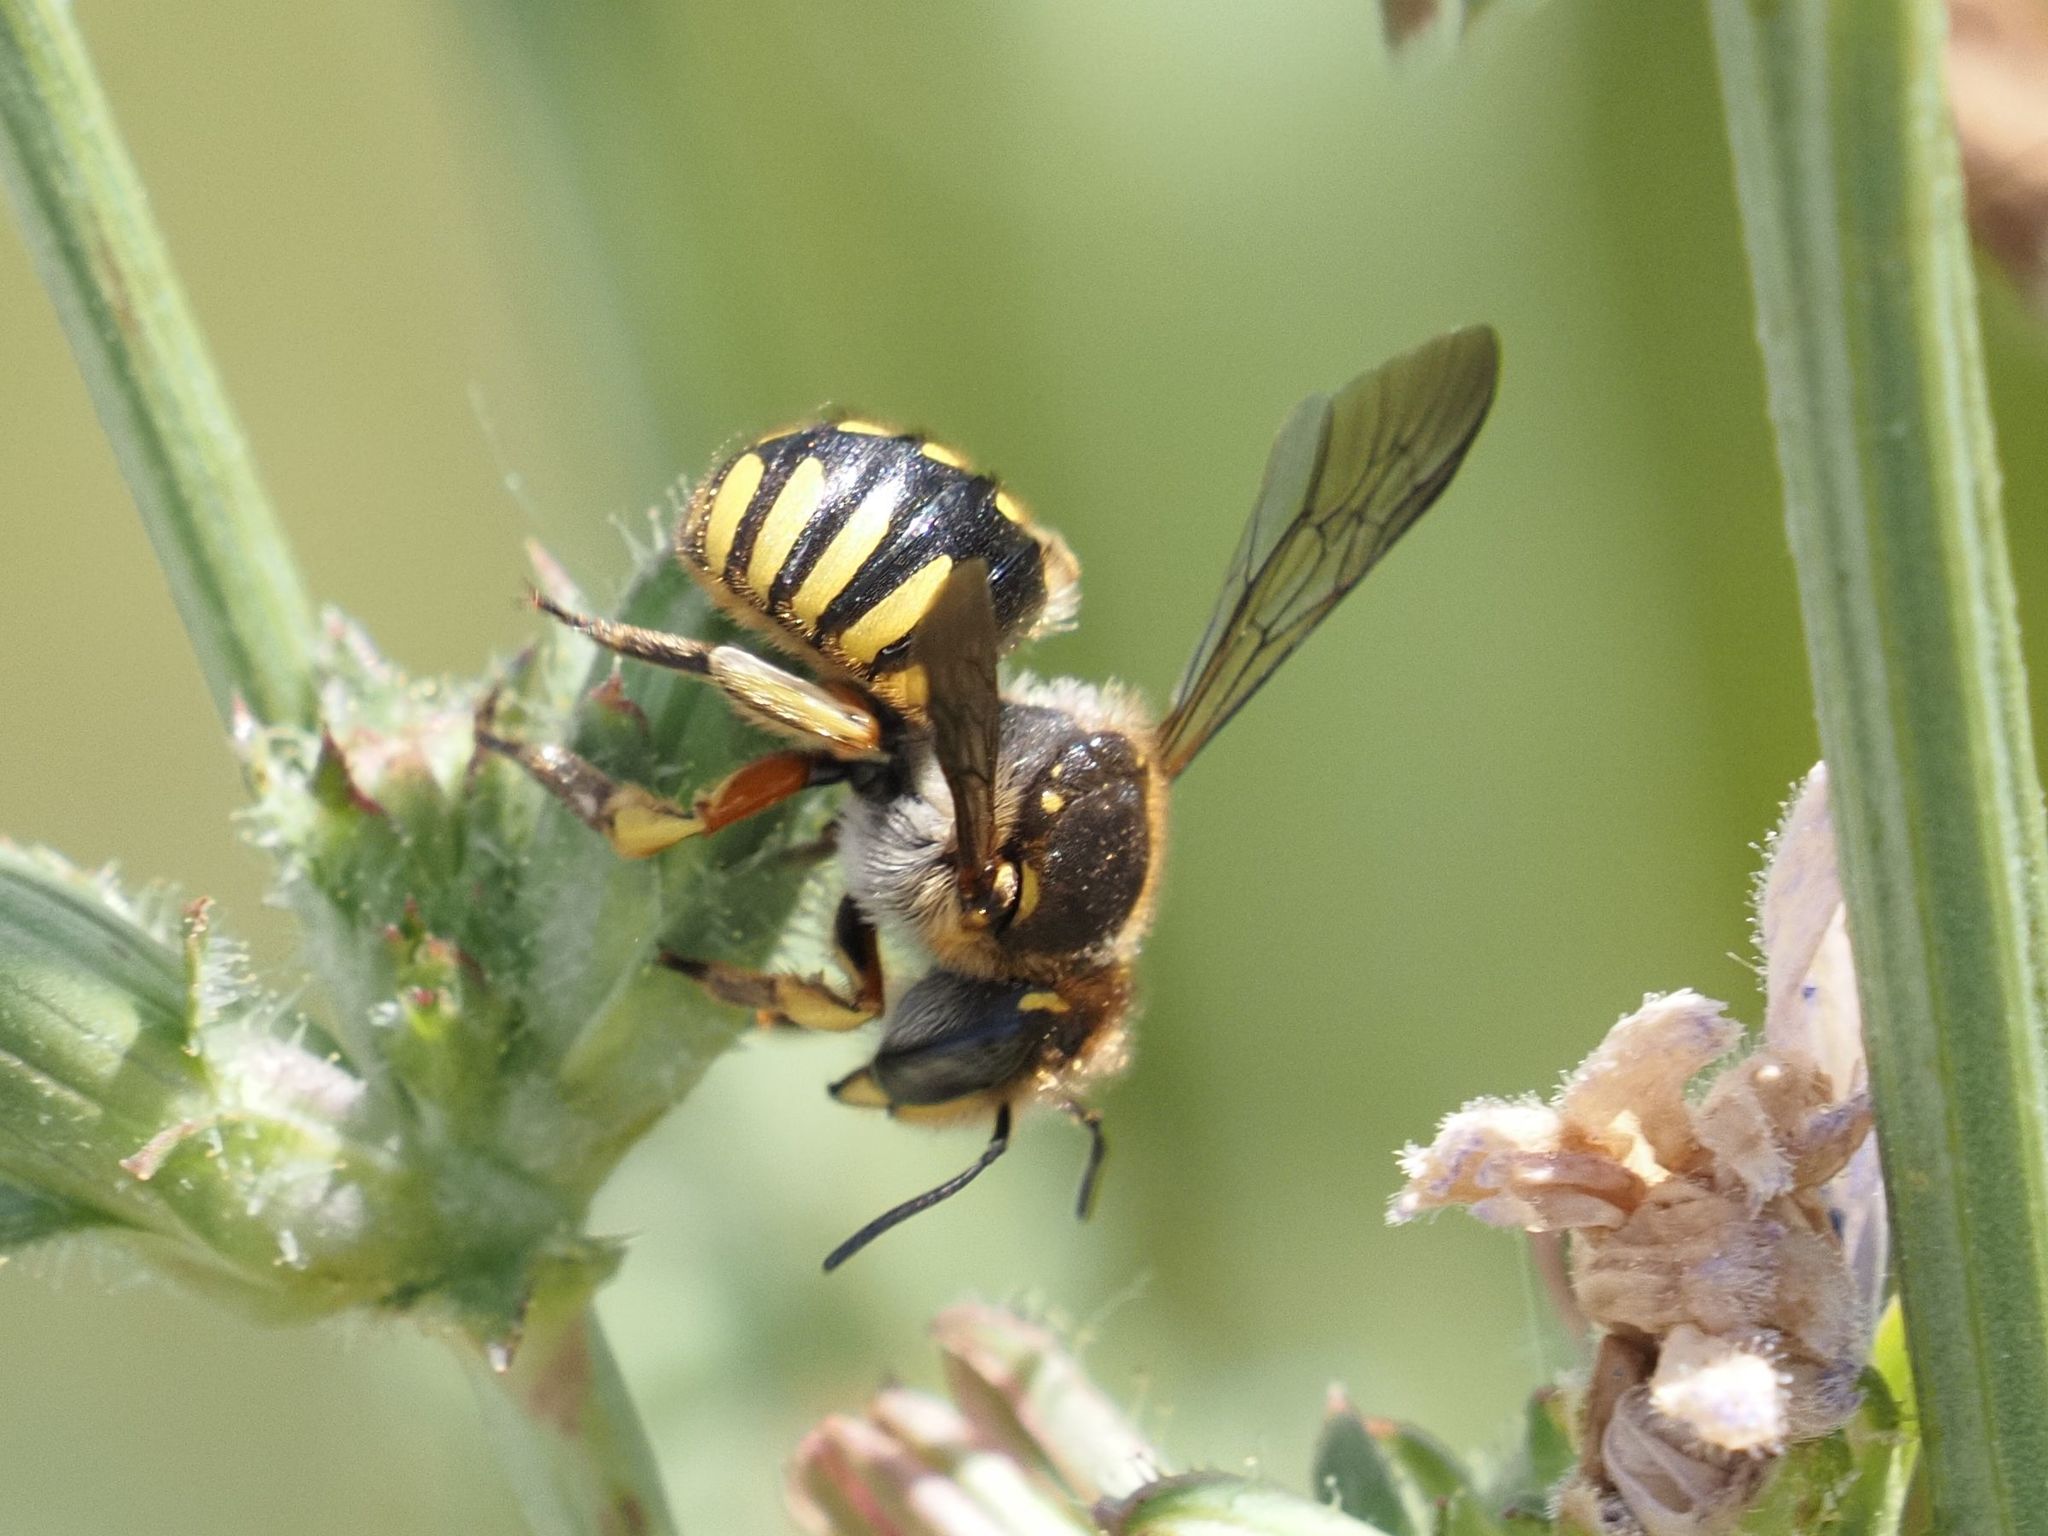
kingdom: Animalia
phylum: Arthropoda
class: Insecta
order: Hymenoptera
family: Megachilidae
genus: Anthidium
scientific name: Anthidium manicatum
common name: Wool carder bee
